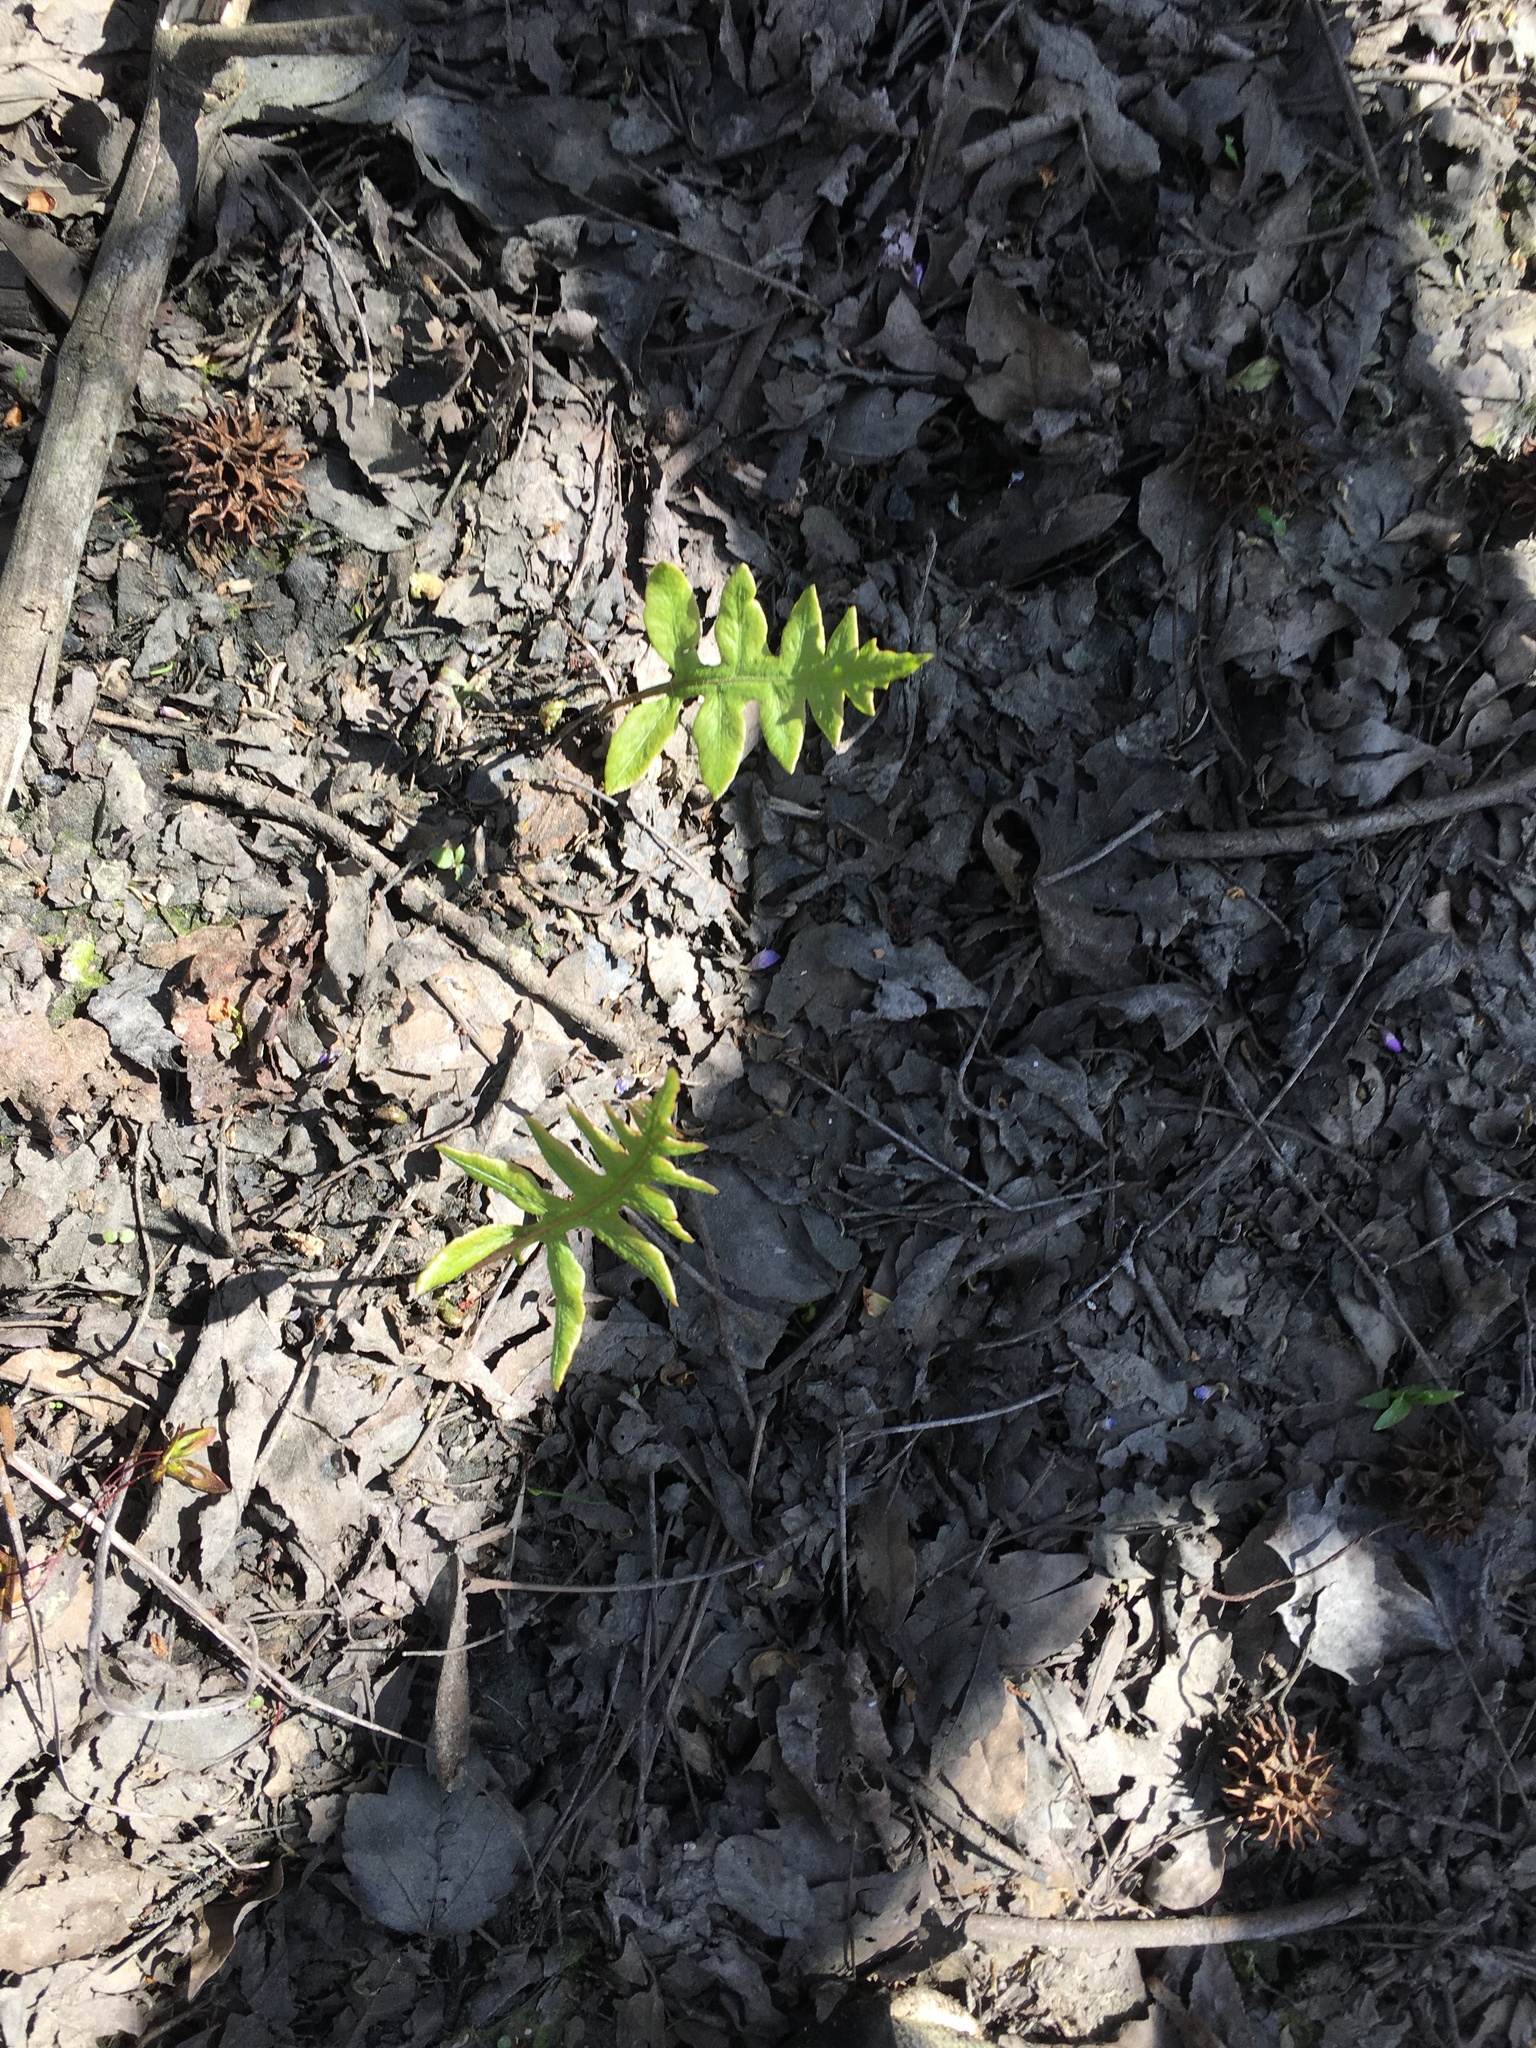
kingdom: Plantae
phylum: Tracheophyta
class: Polypodiopsida
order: Polypodiales
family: Blechnaceae
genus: Lorinseria
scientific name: Lorinseria areolata
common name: Dwarf chain fern
